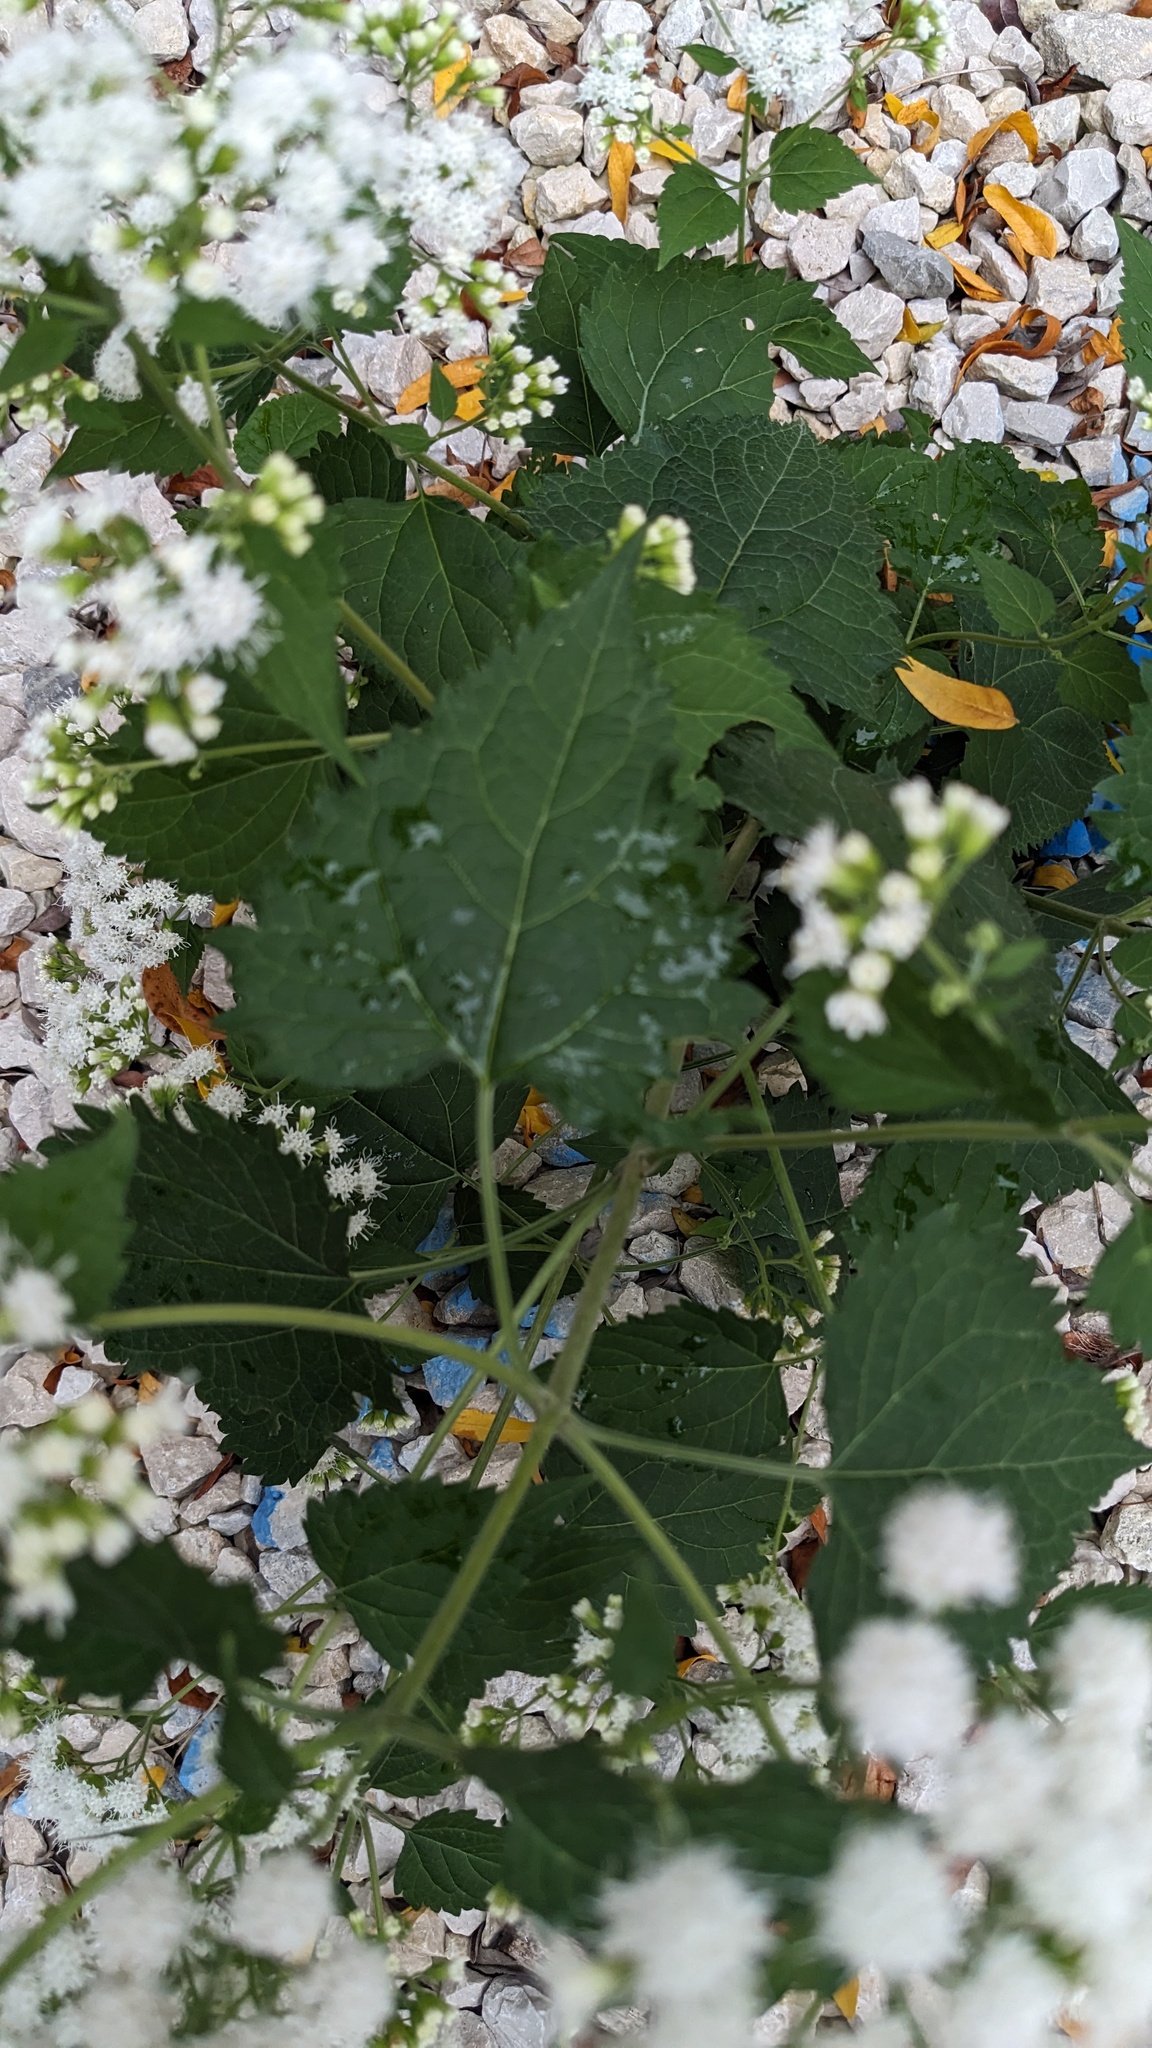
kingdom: Plantae
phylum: Tracheophyta
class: Magnoliopsida
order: Asterales
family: Asteraceae
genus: Ageratina
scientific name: Ageratina altissima
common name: White snakeroot
